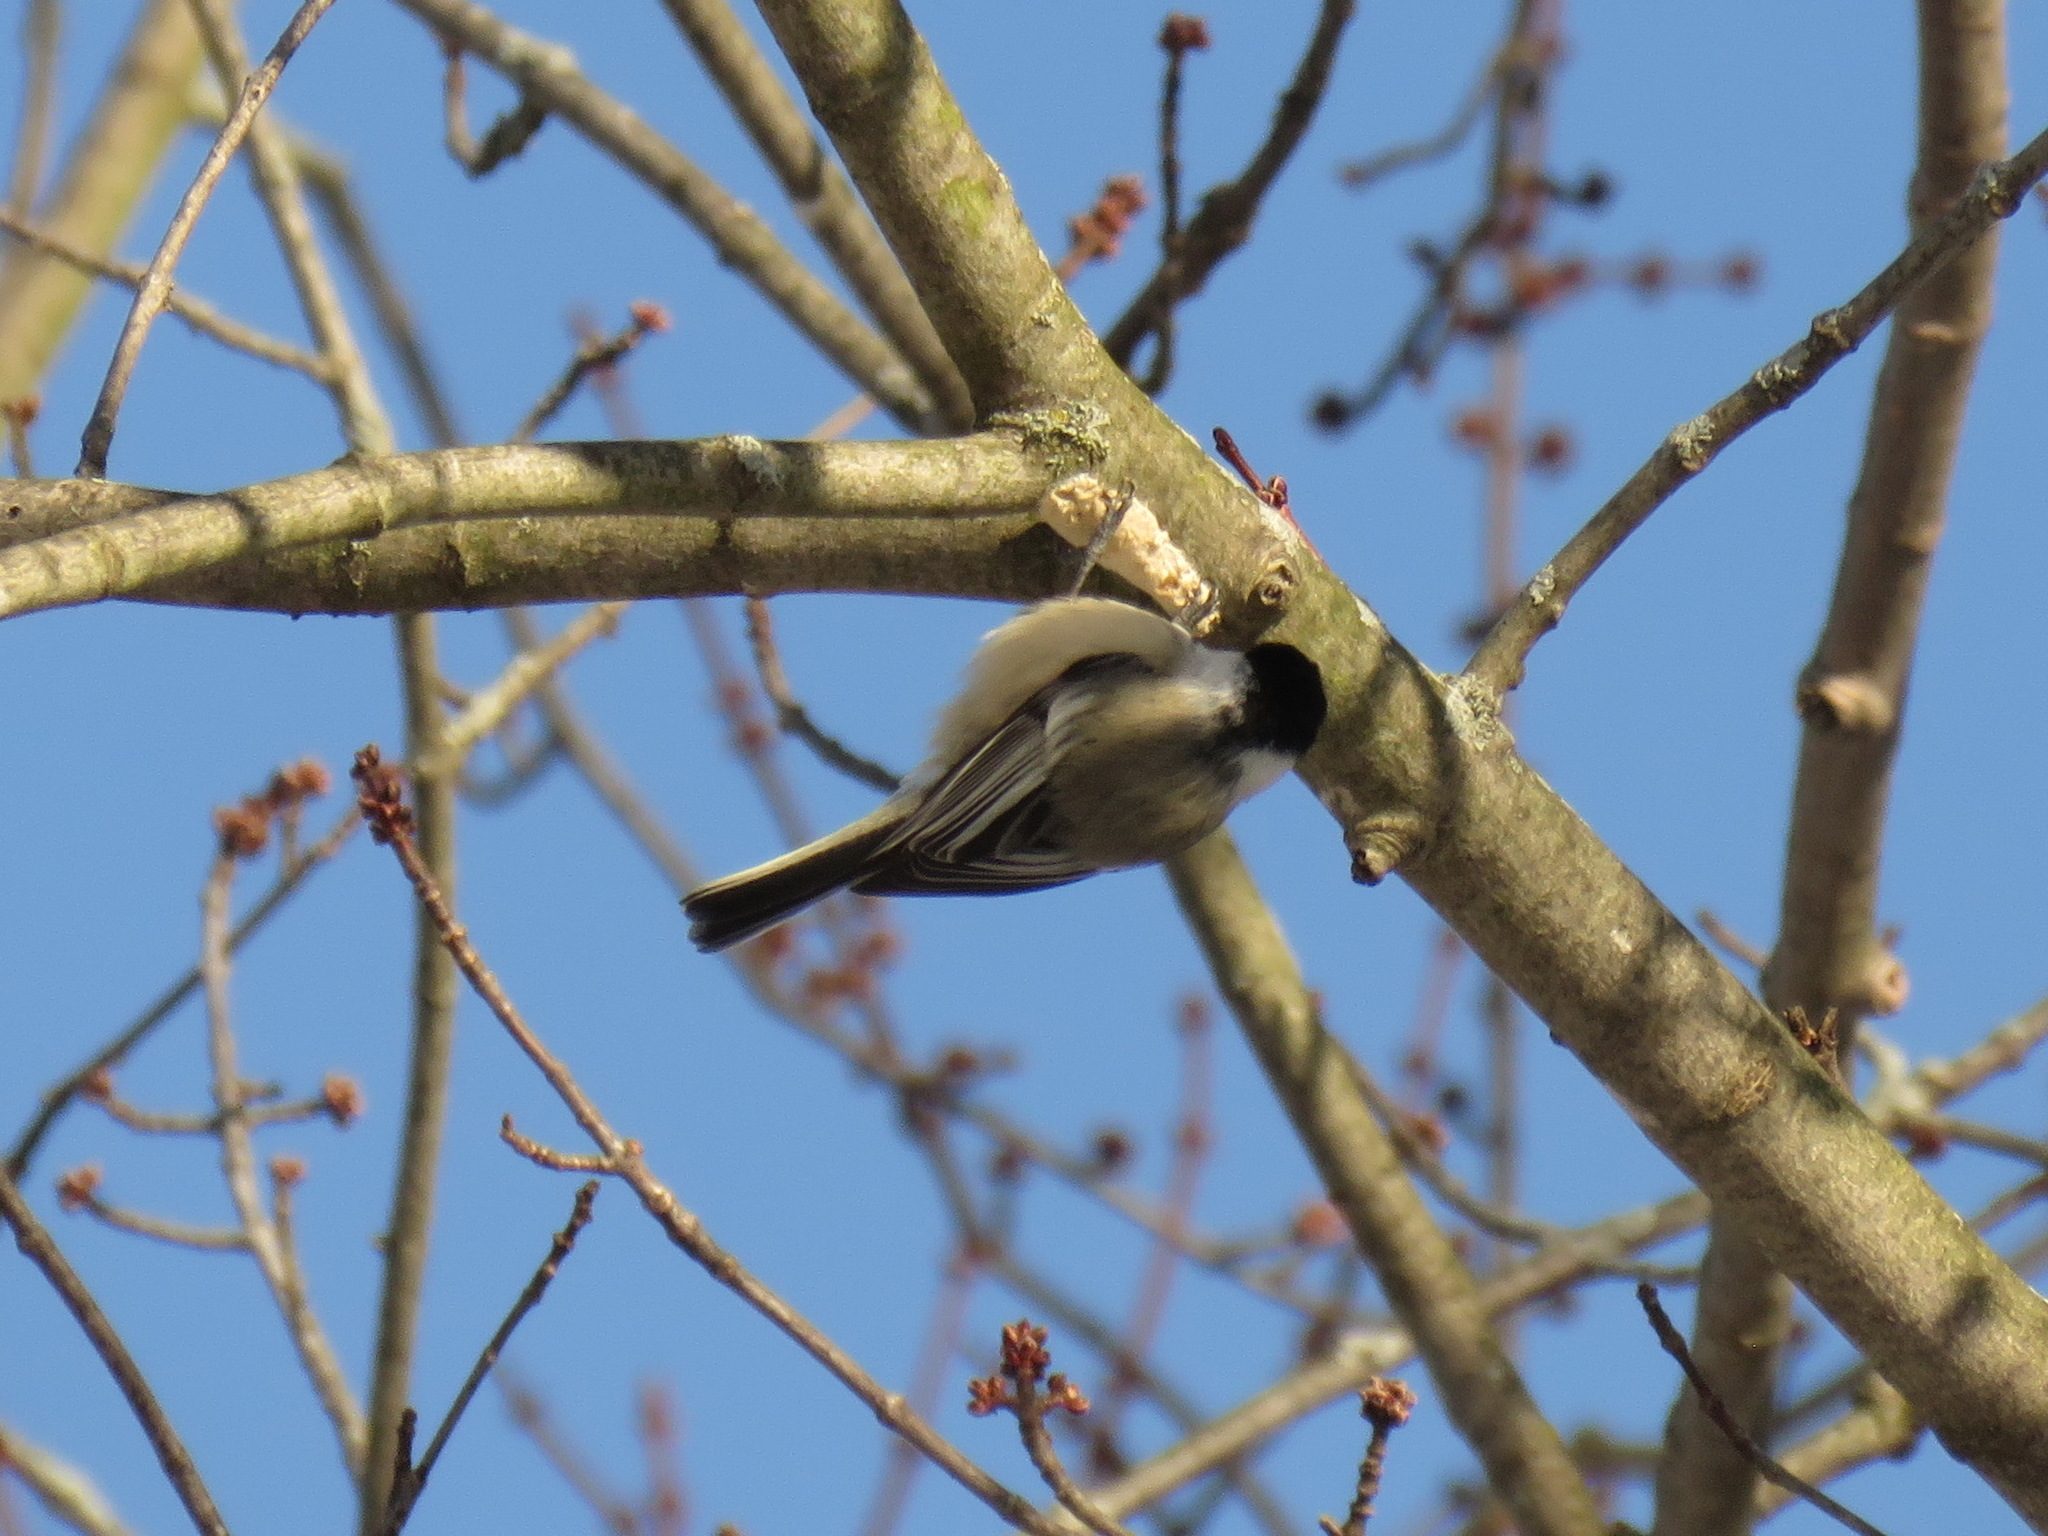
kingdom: Animalia
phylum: Chordata
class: Aves
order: Passeriformes
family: Paridae
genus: Poecile
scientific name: Poecile atricapillus
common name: Black-capped chickadee
